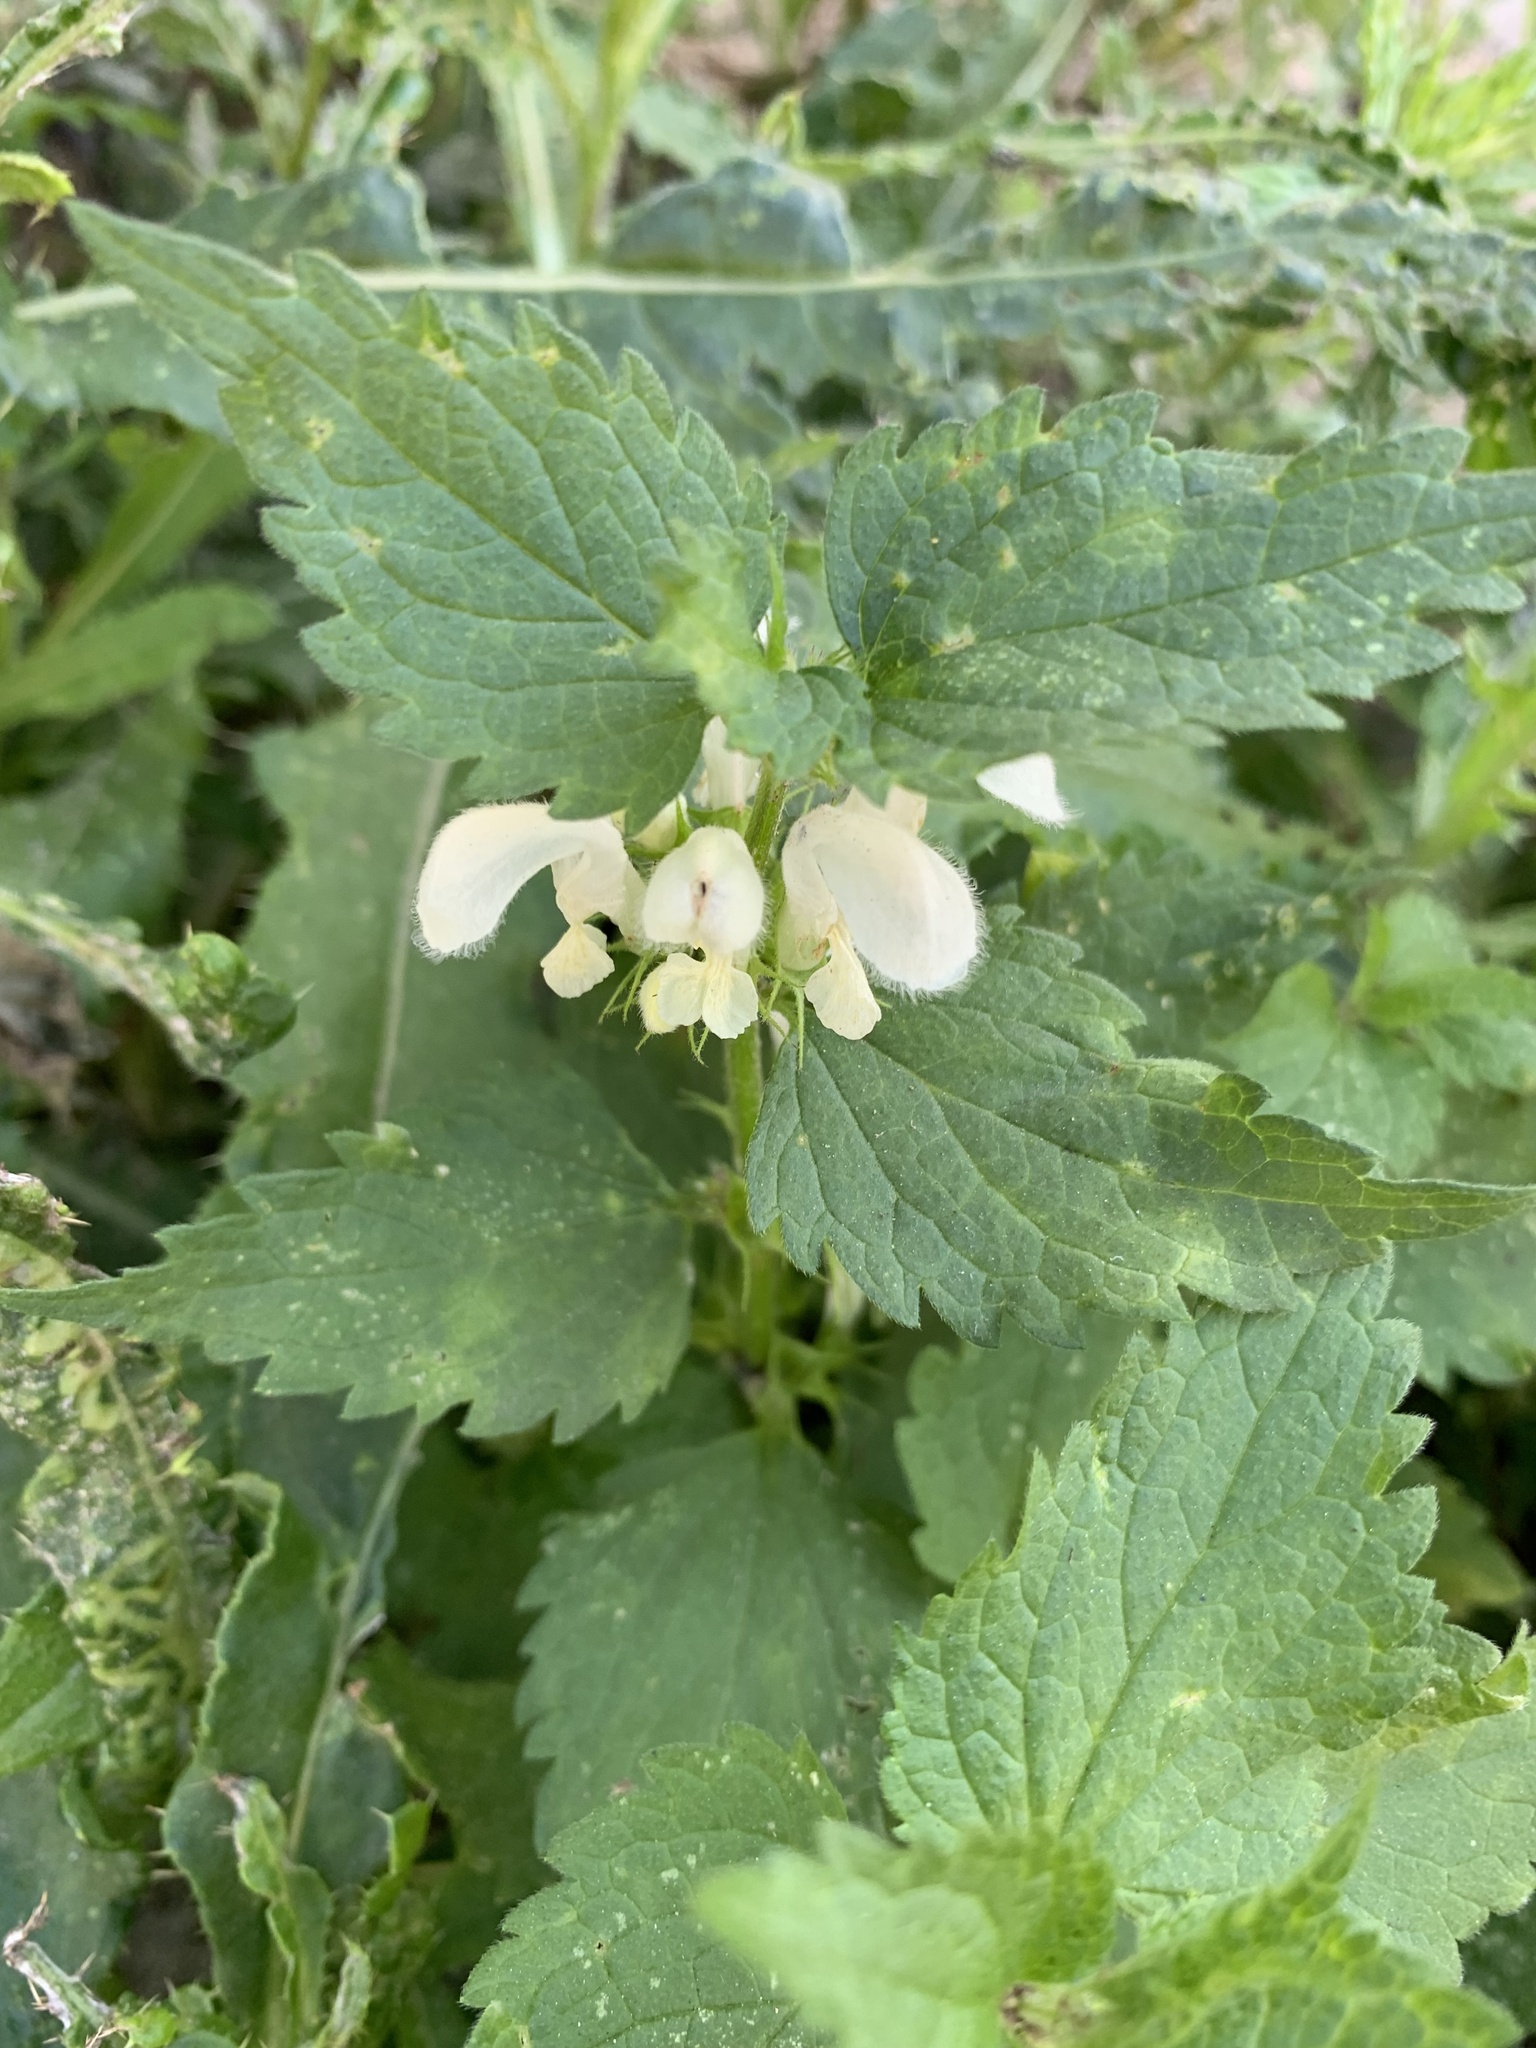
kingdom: Plantae
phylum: Tracheophyta
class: Magnoliopsida
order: Lamiales
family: Lamiaceae
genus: Lamium
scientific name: Lamium album
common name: White dead-nettle
